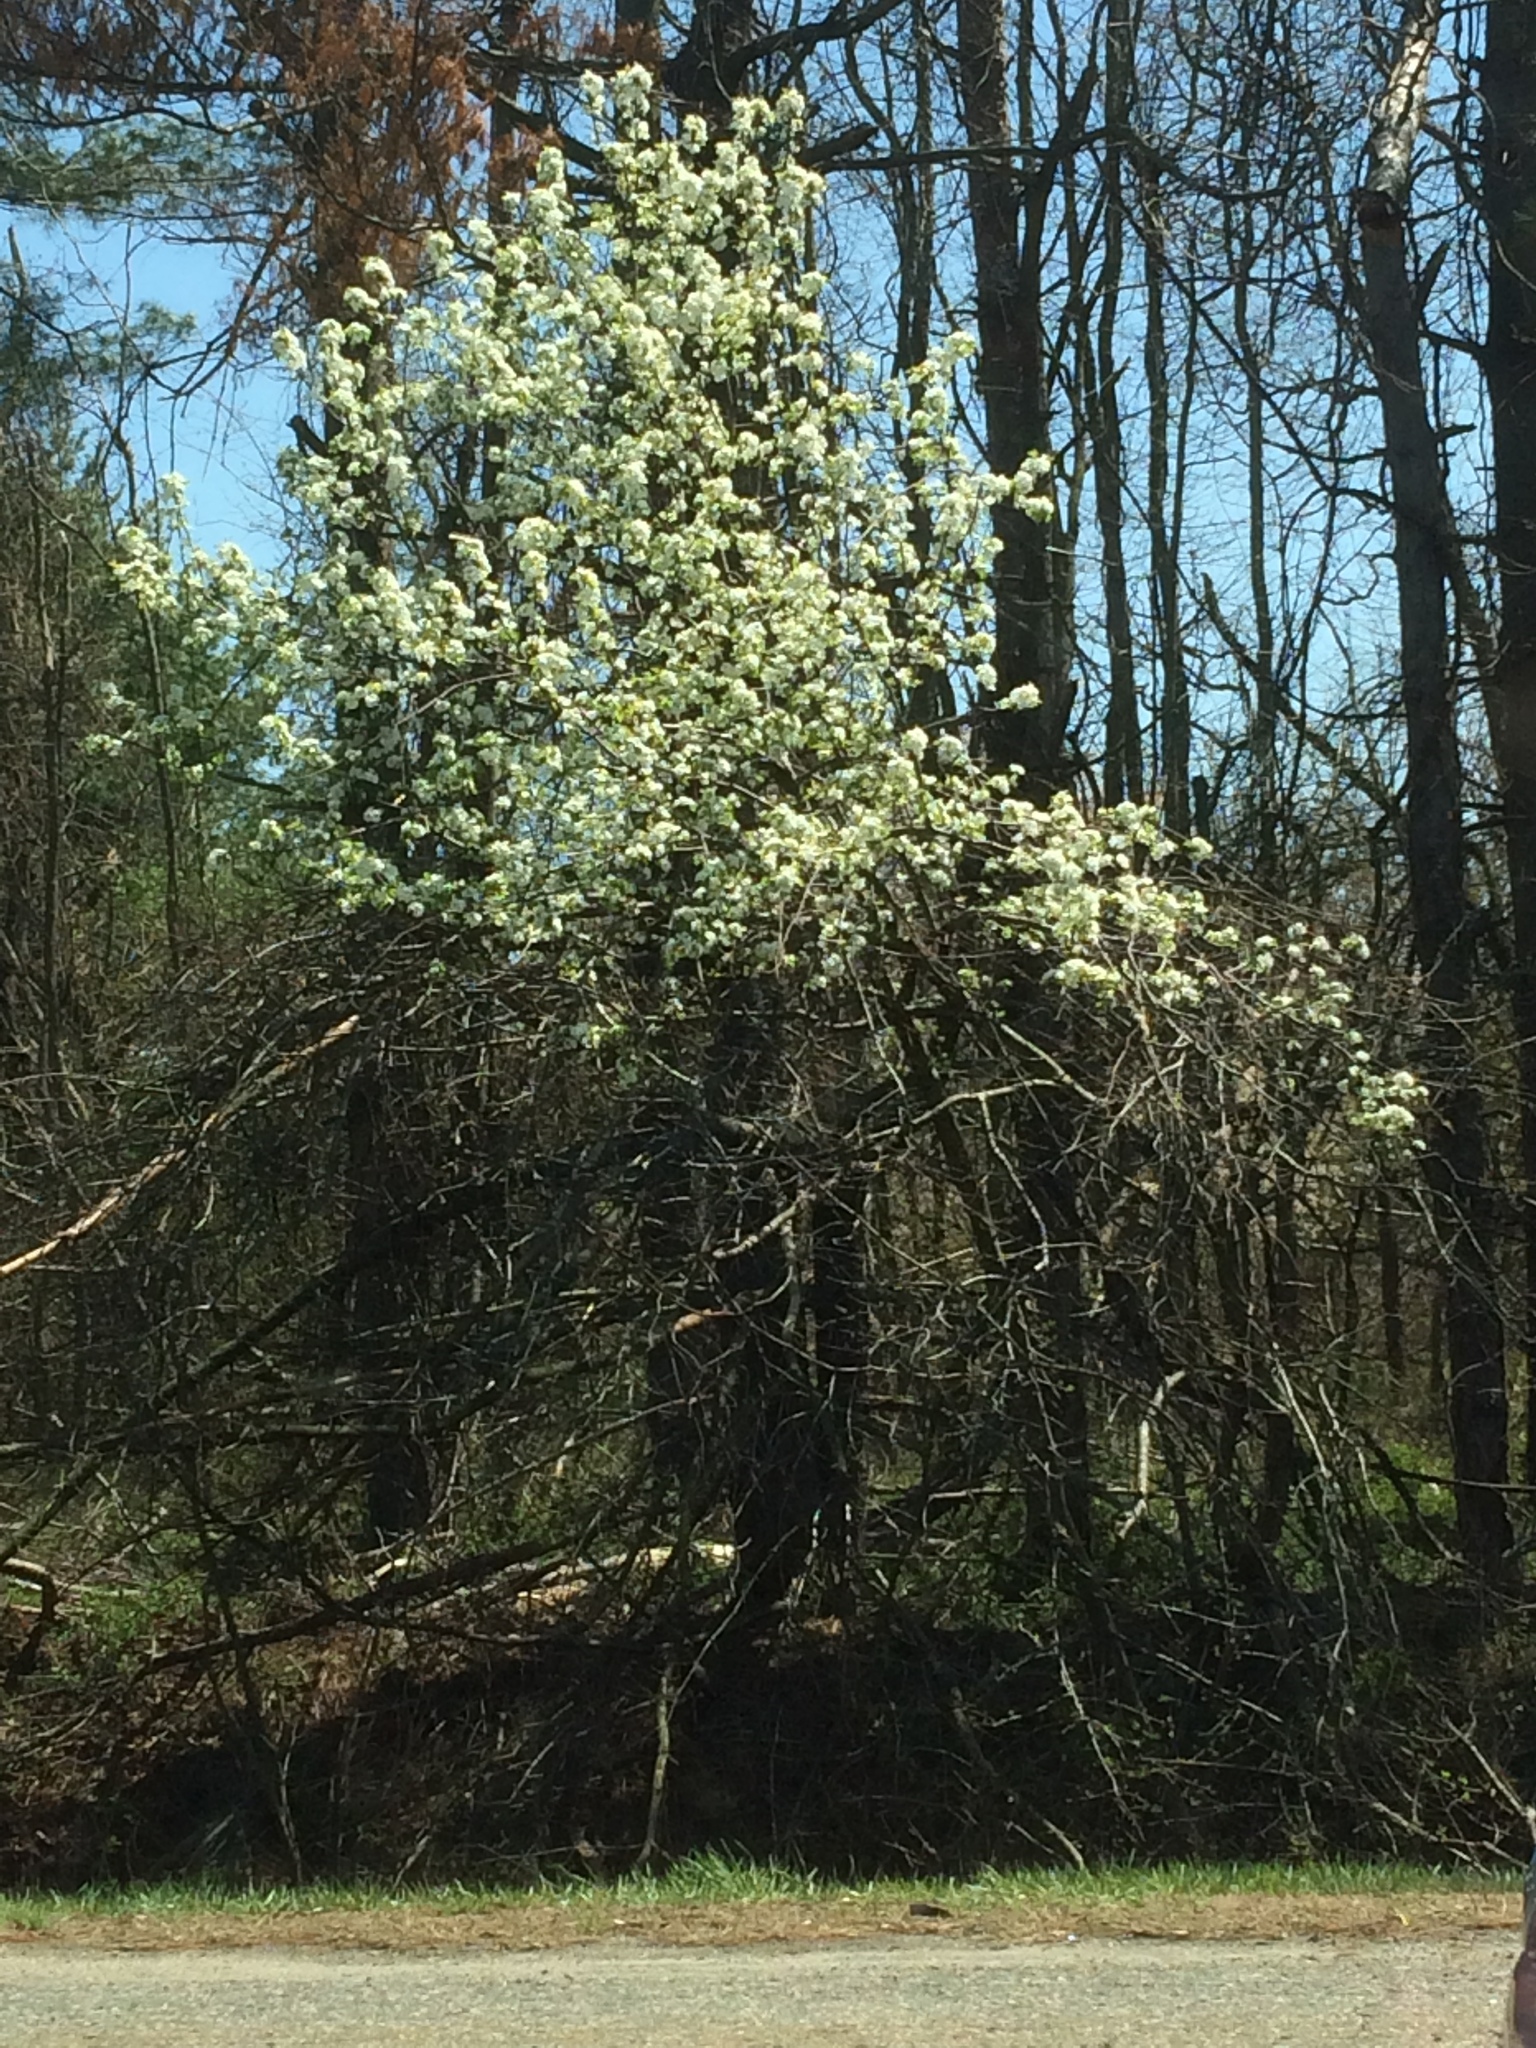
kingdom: Plantae
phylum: Tracheophyta
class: Magnoliopsida
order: Rosales
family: Rosaceae
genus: Pyrus
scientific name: Pyrus calleryana
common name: Callery pear
